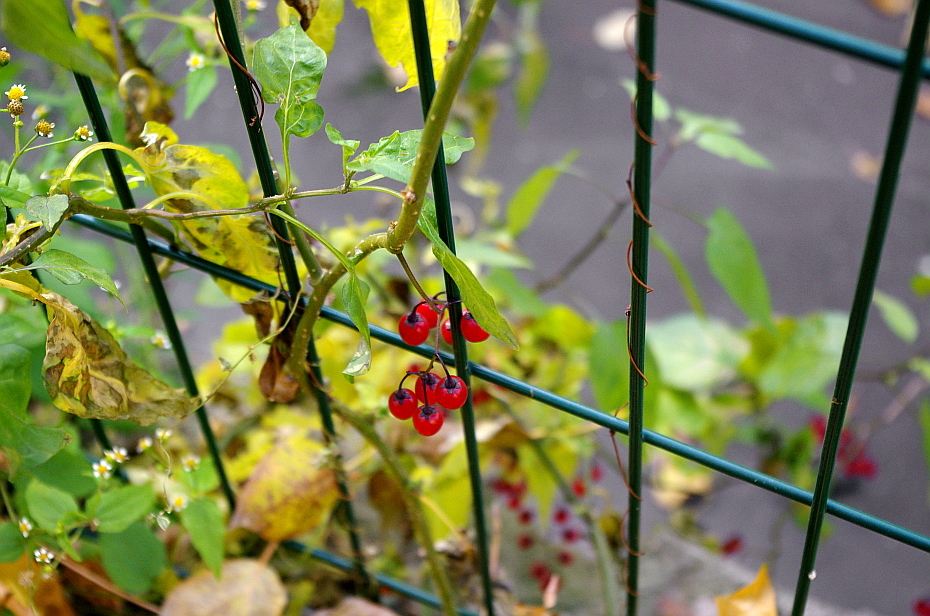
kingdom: Plantae
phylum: Tracheophyta
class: Magnoliopsida
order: Solanales
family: Solanaceae
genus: Solanum
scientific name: Solanum dulcamara
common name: Climbing nightshade
